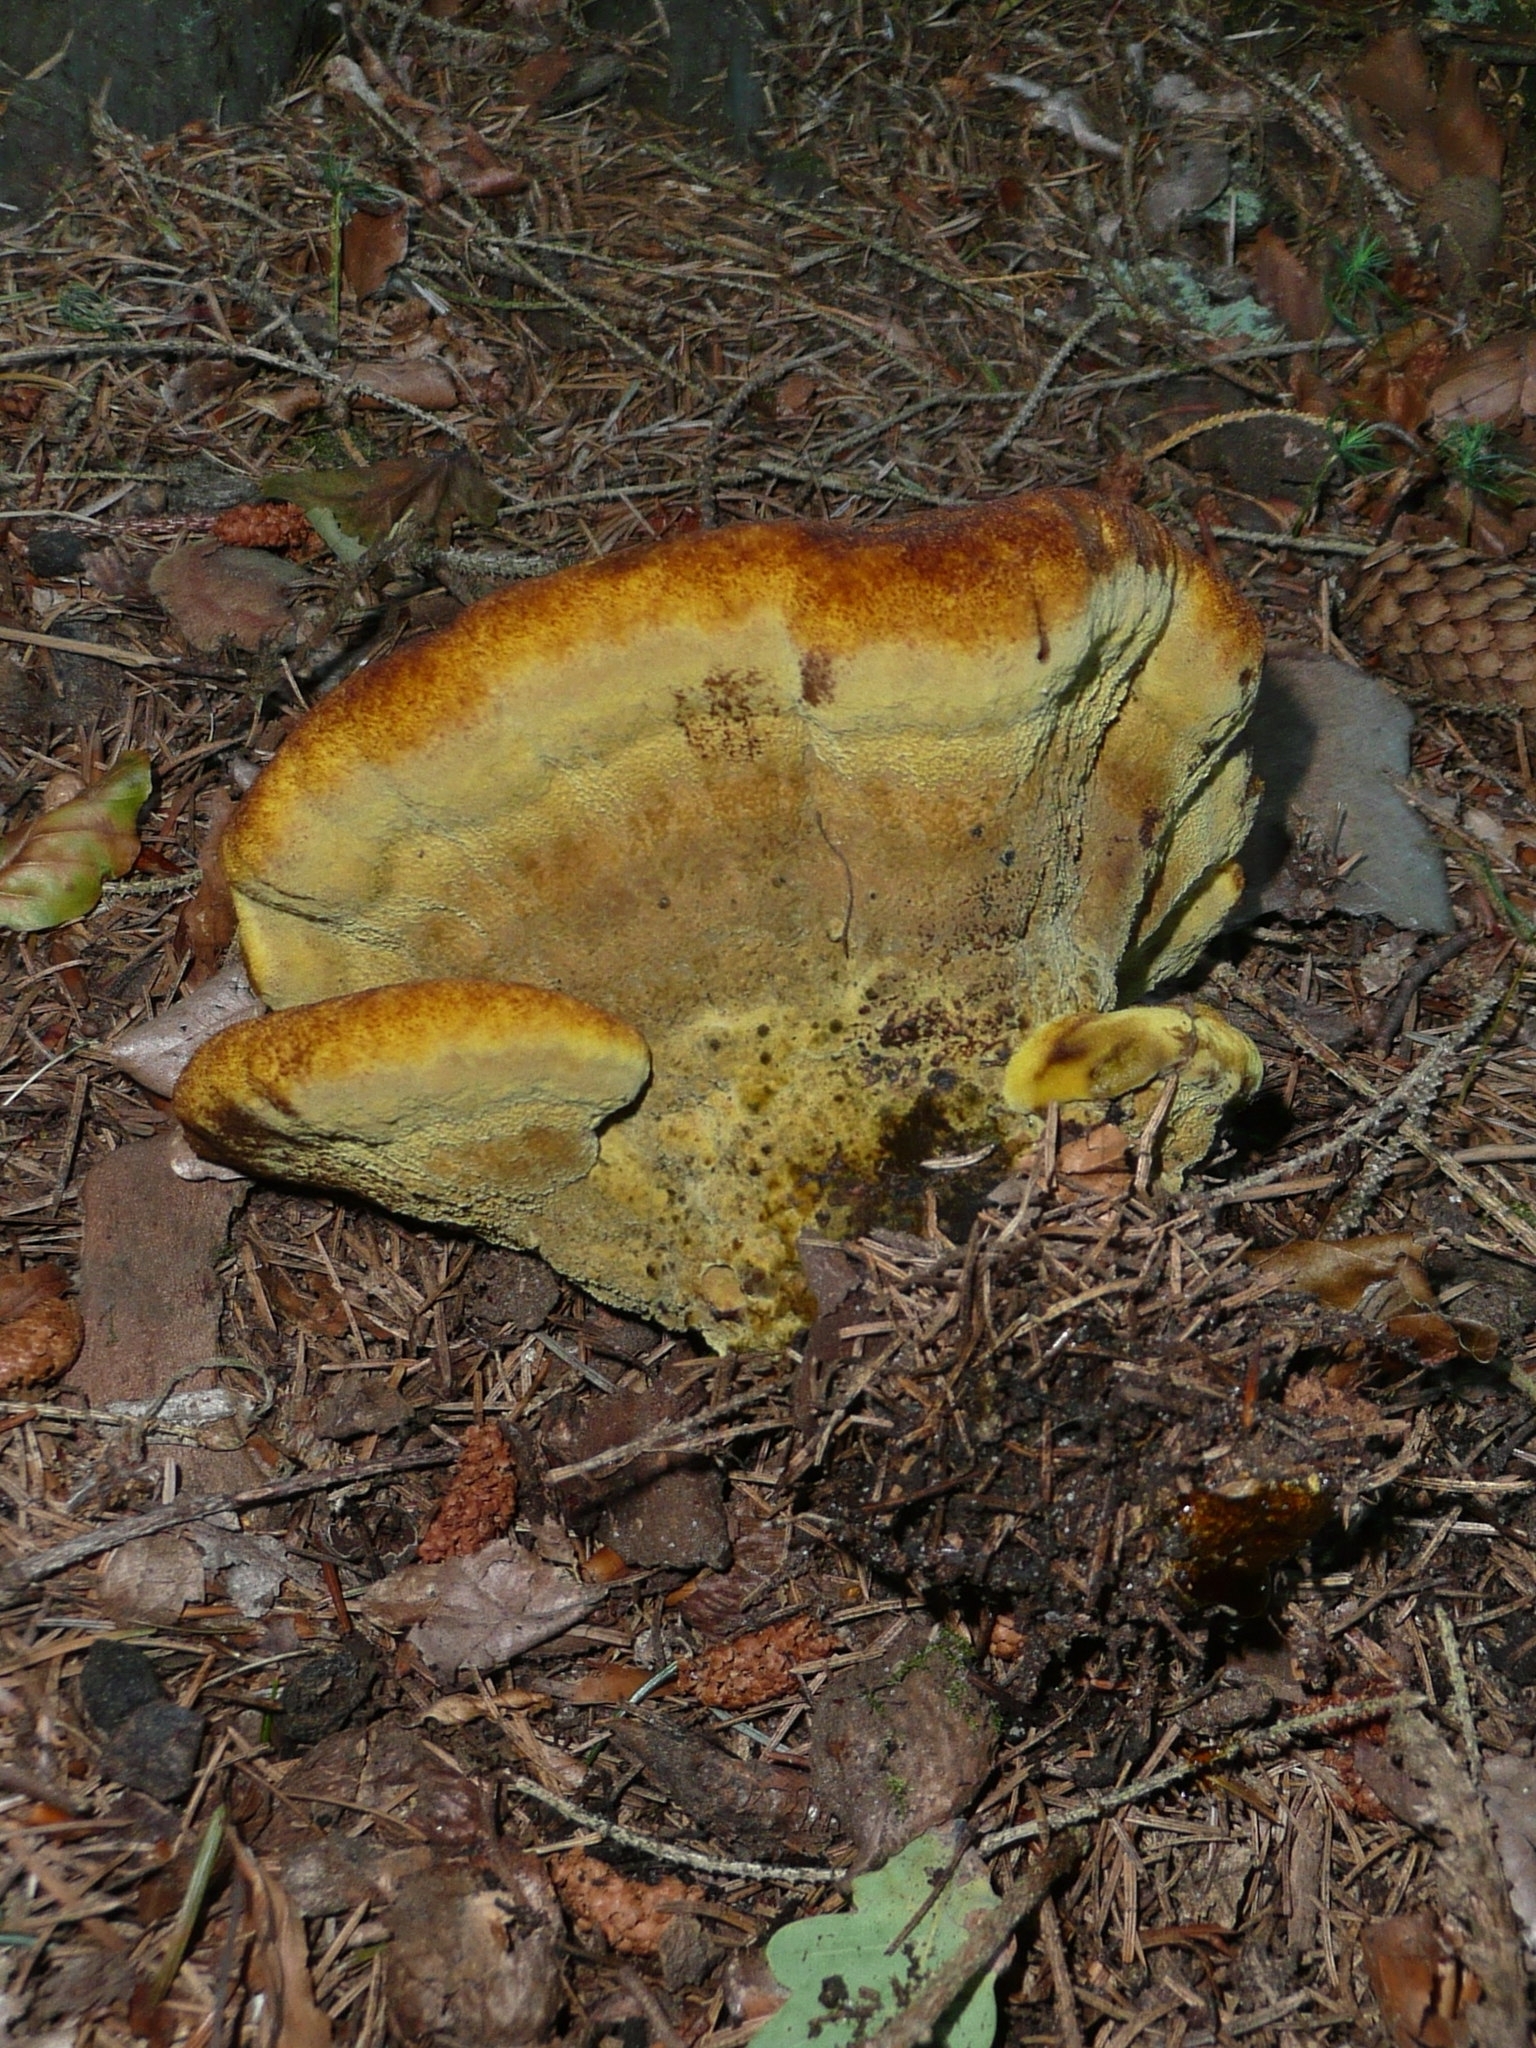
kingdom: Fungi
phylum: Basidiomycota
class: Agaricomycetes
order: Polyporales
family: Laetiporaceae
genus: Phaeolus
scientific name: Phaeolus schweinitzii
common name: Dyer's mazegill
